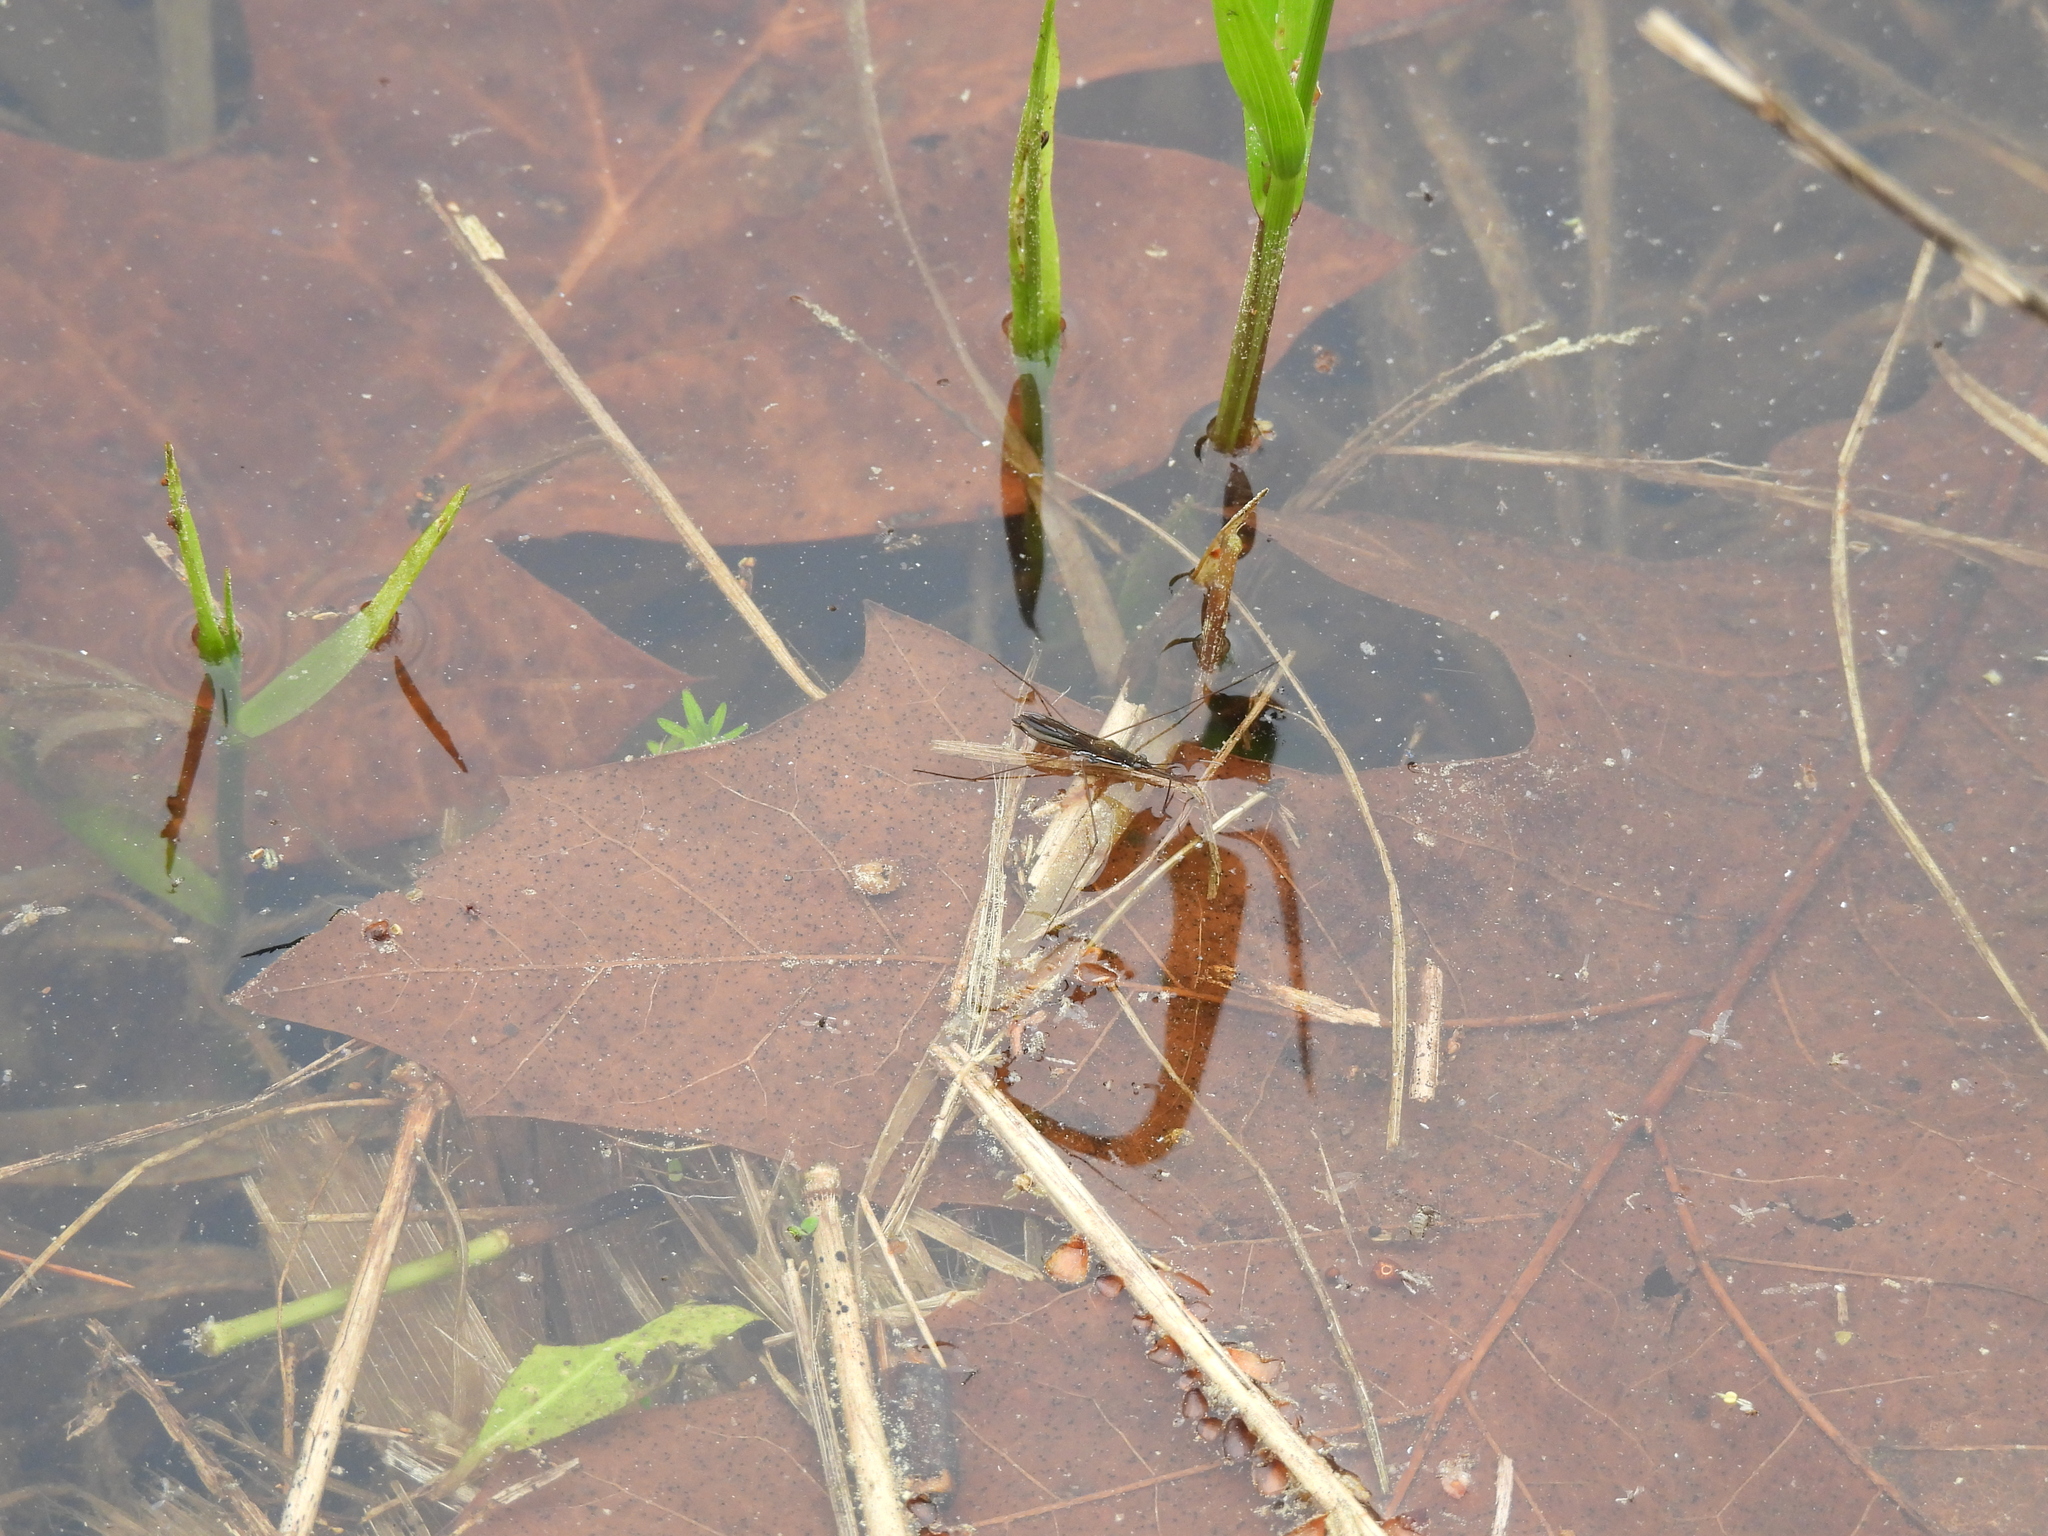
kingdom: Animalia
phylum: Arthropoda
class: Insecta
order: Hemiptera
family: Gerridae
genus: Limnoporus
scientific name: Limnoporus canaliculatus
